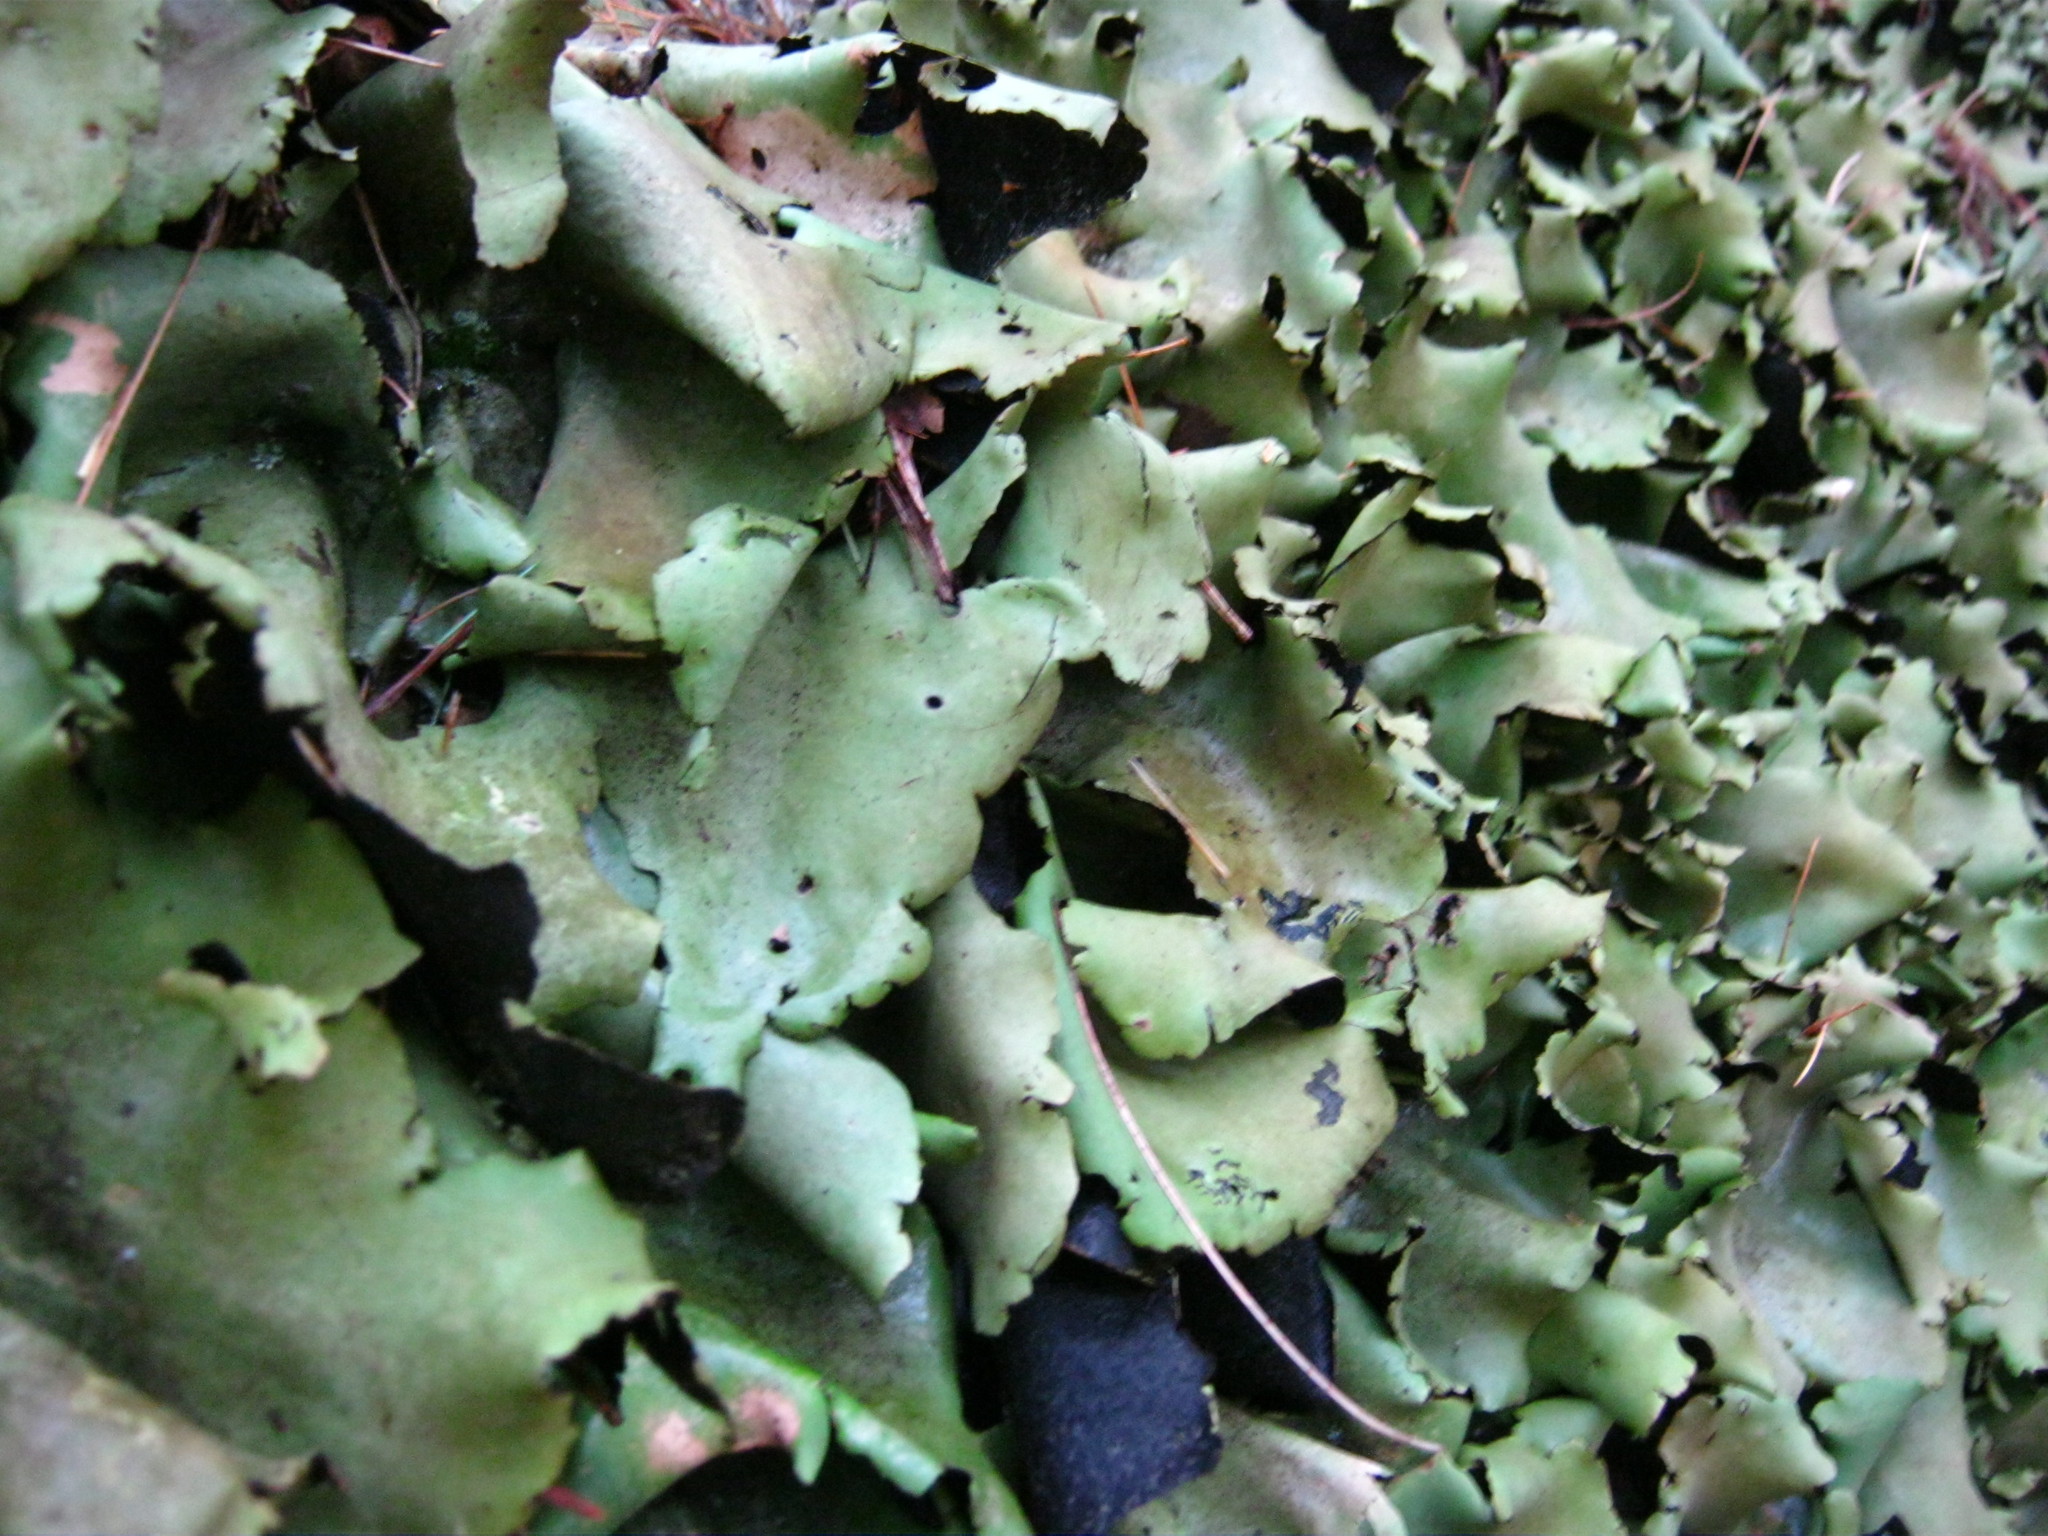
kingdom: Fungi
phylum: Ascomycota
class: Lecanoromycetes
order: Umbilicariales
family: Umbilicariaceae
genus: Umbilicaria
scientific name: Umbilicaria mammulata
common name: Smooth rock tripe
